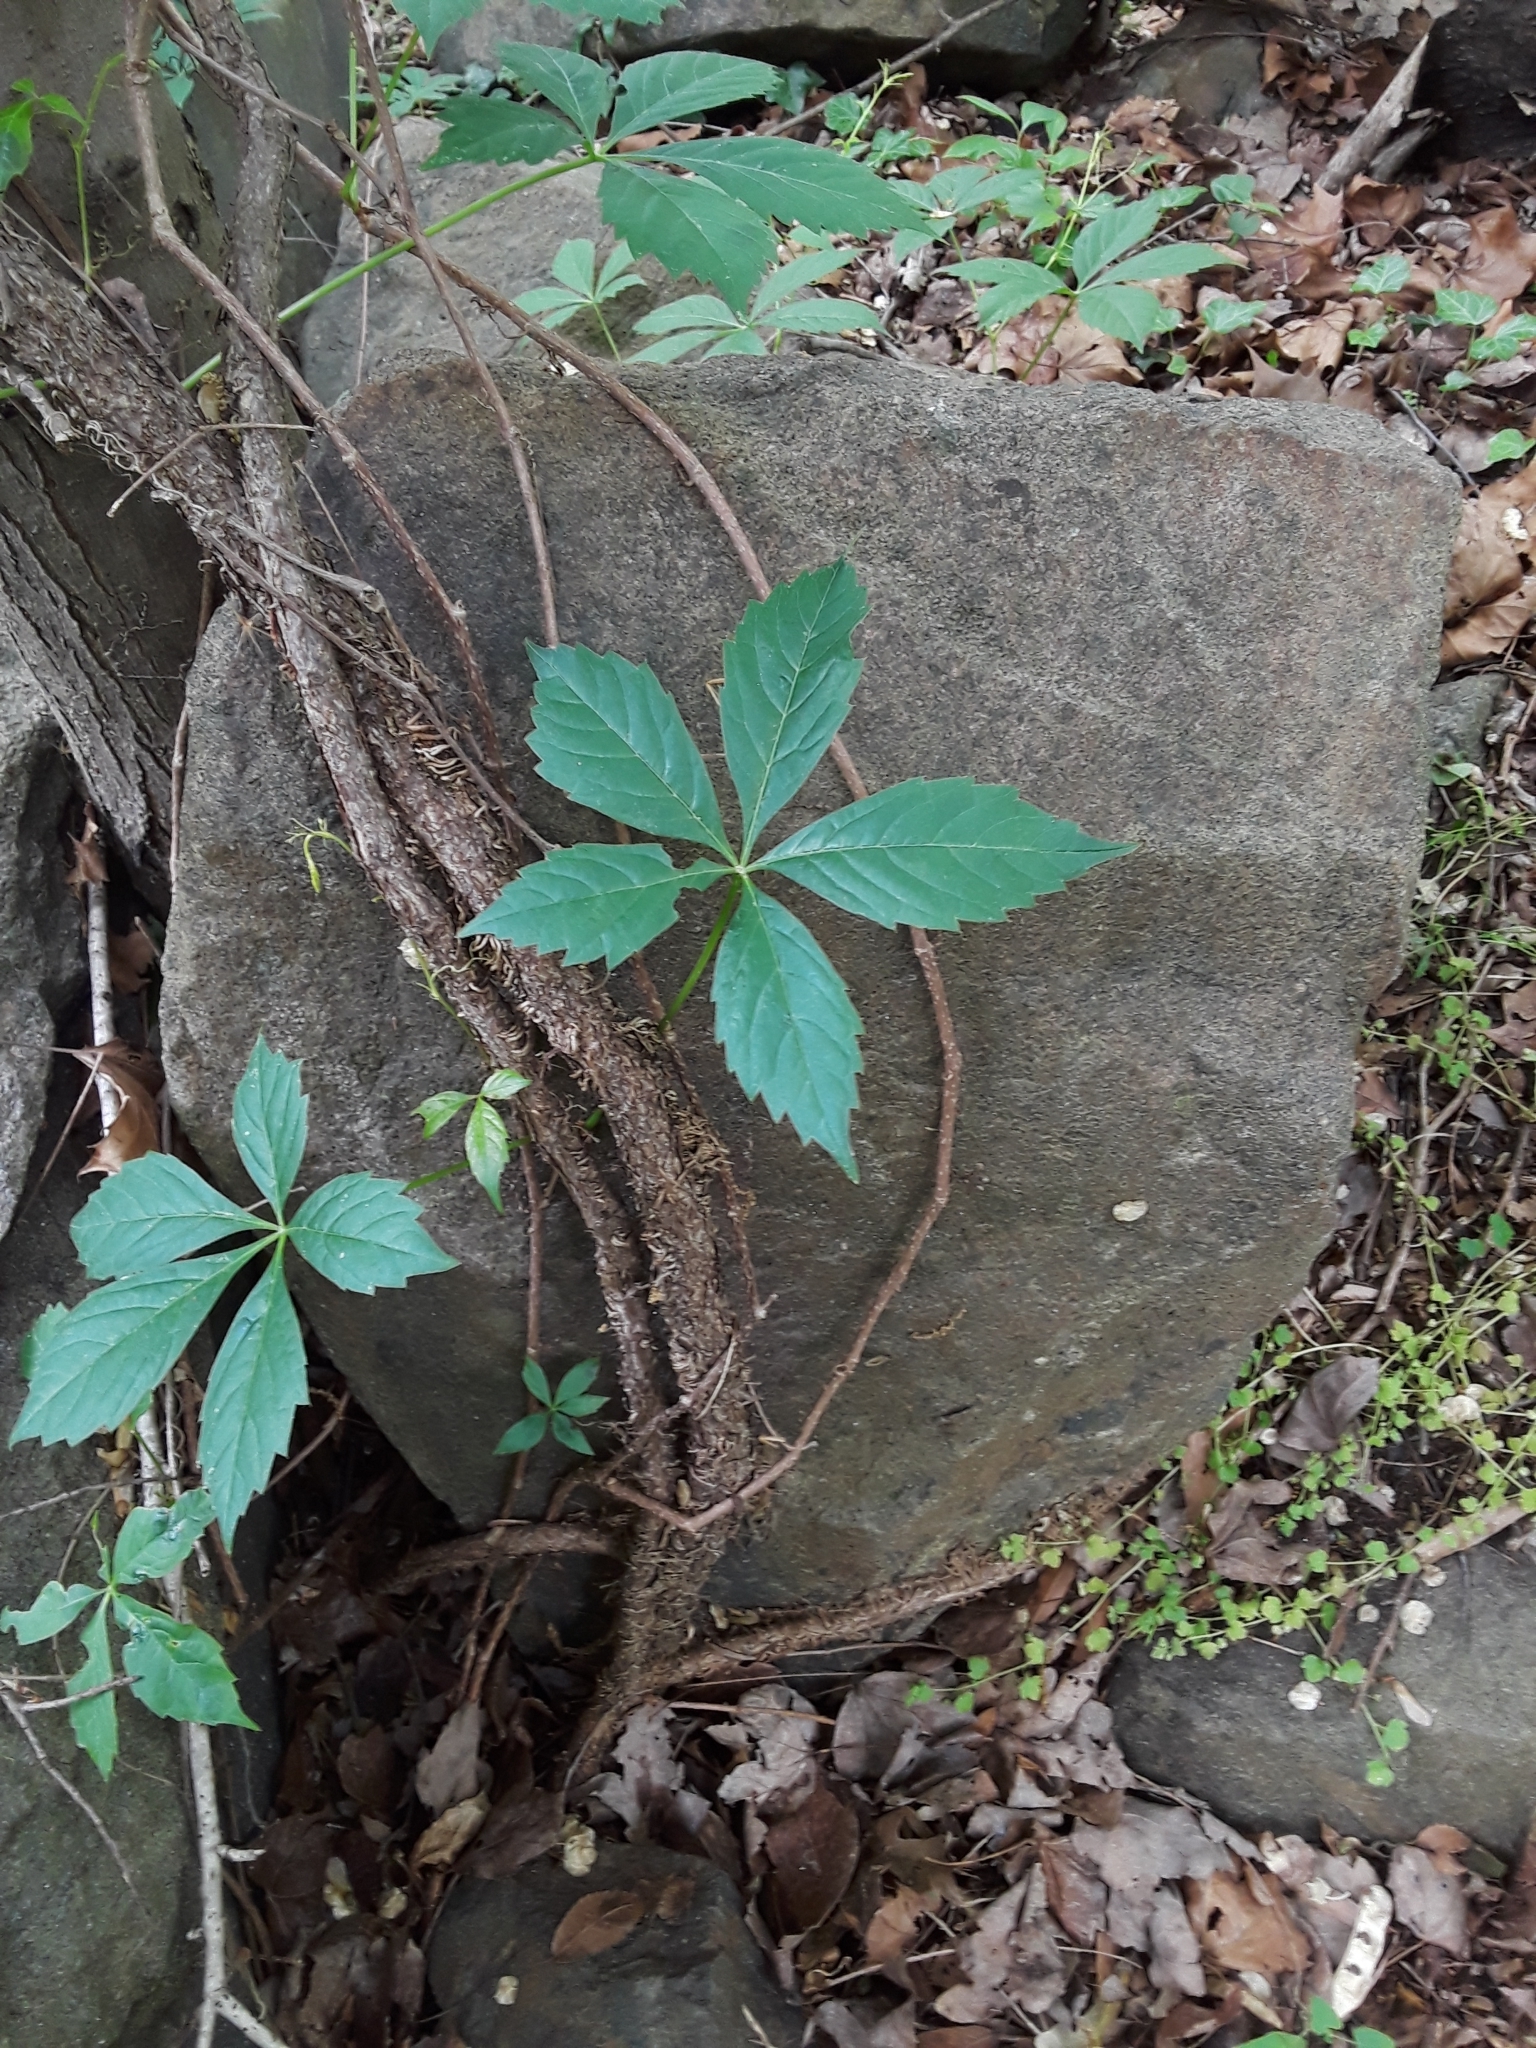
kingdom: Plantae
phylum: Tracheophyta
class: Magnoliopsida
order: Vitales
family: Vitaceae
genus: Parthenocissus
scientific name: Parthenocissus quinquefolia
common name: Virginia-creeper
